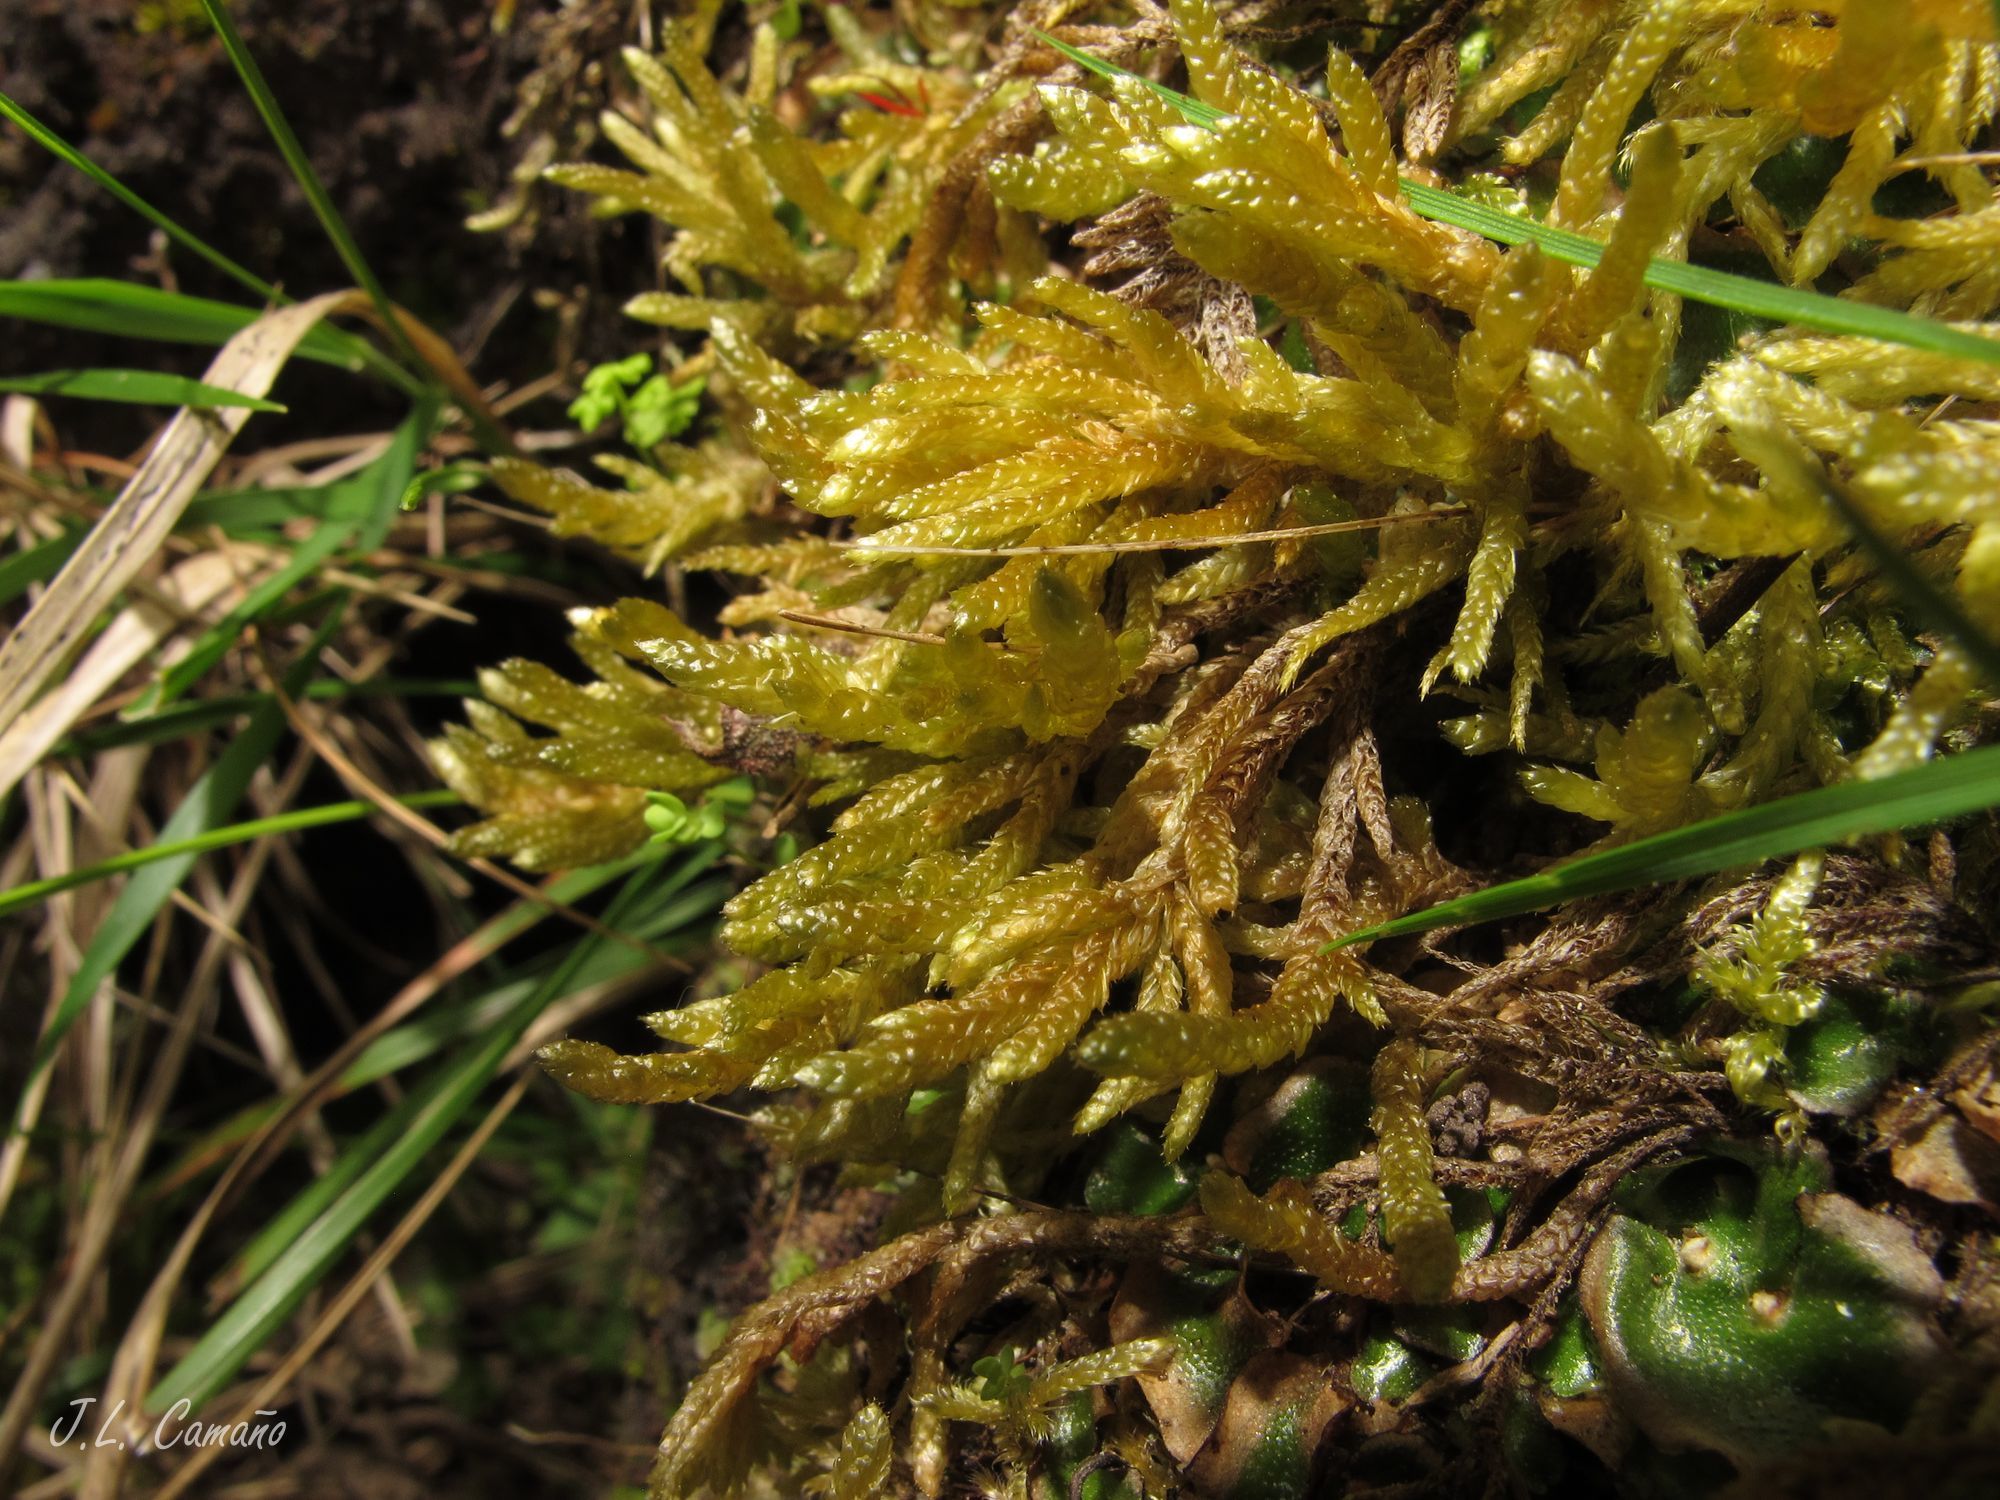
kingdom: Plantae
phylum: Bryophyta
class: Bryopsida
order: Hypnales
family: Hypnaceae
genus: Hypnum
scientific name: Hypnum cupressiforme
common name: Cypress-leaved plait-moss
